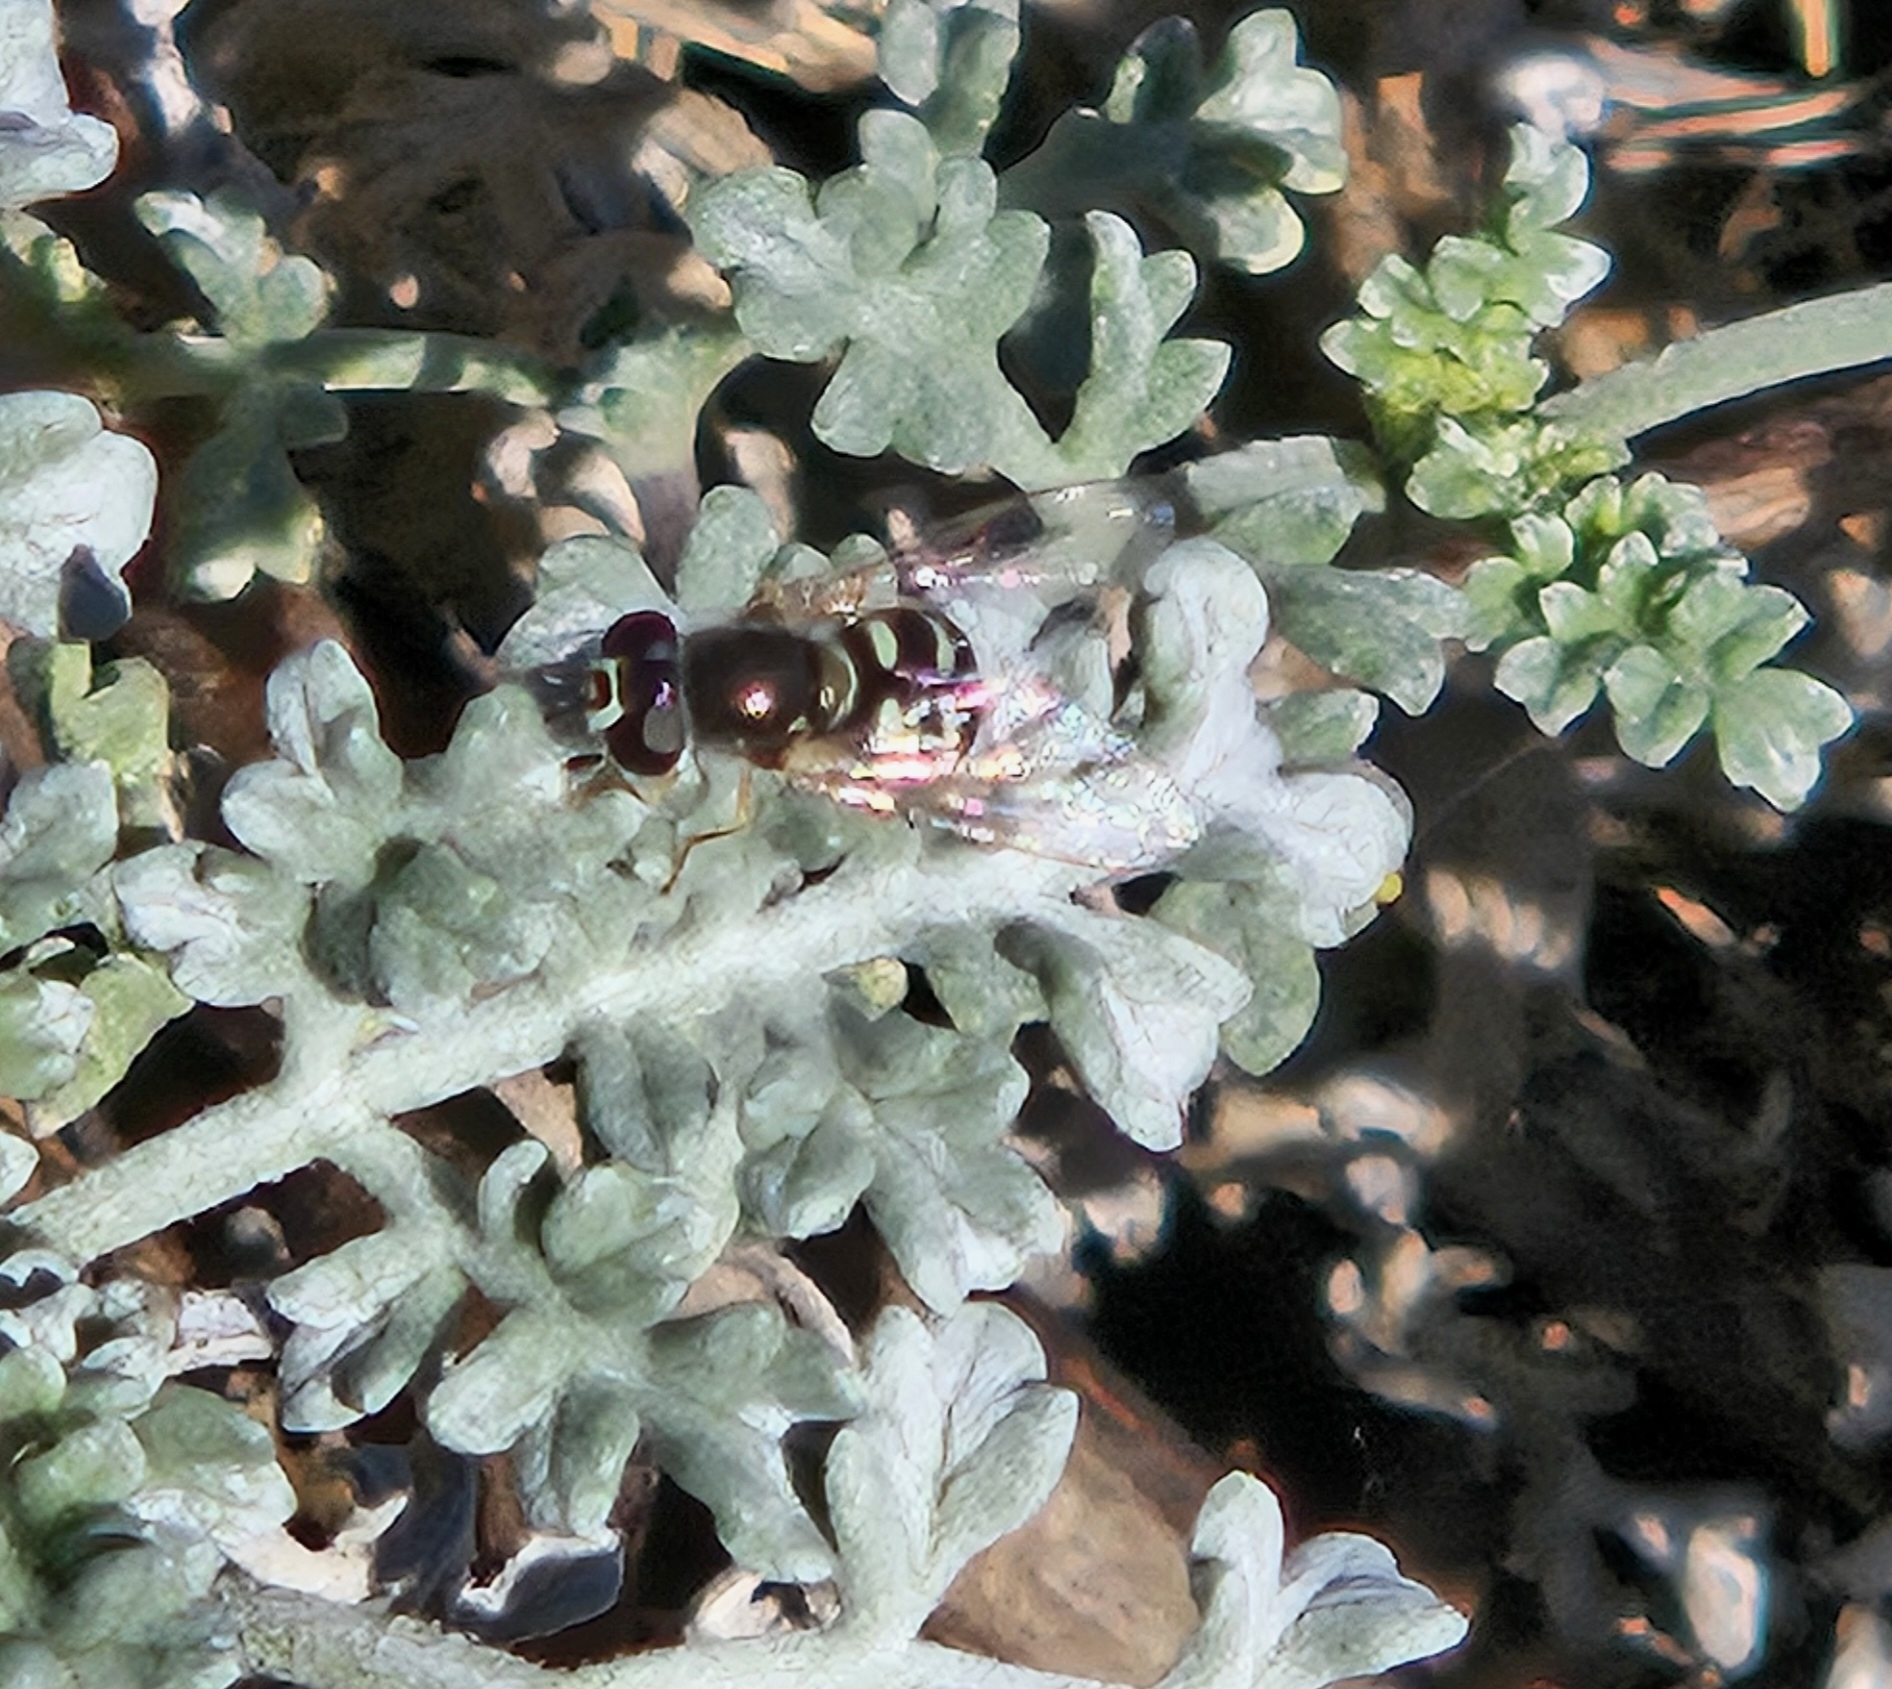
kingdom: Animalia
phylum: Arthropoda
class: Insecta
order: Diptera
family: Syrphidae
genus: Eupeodes
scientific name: Eupeodes volucris
